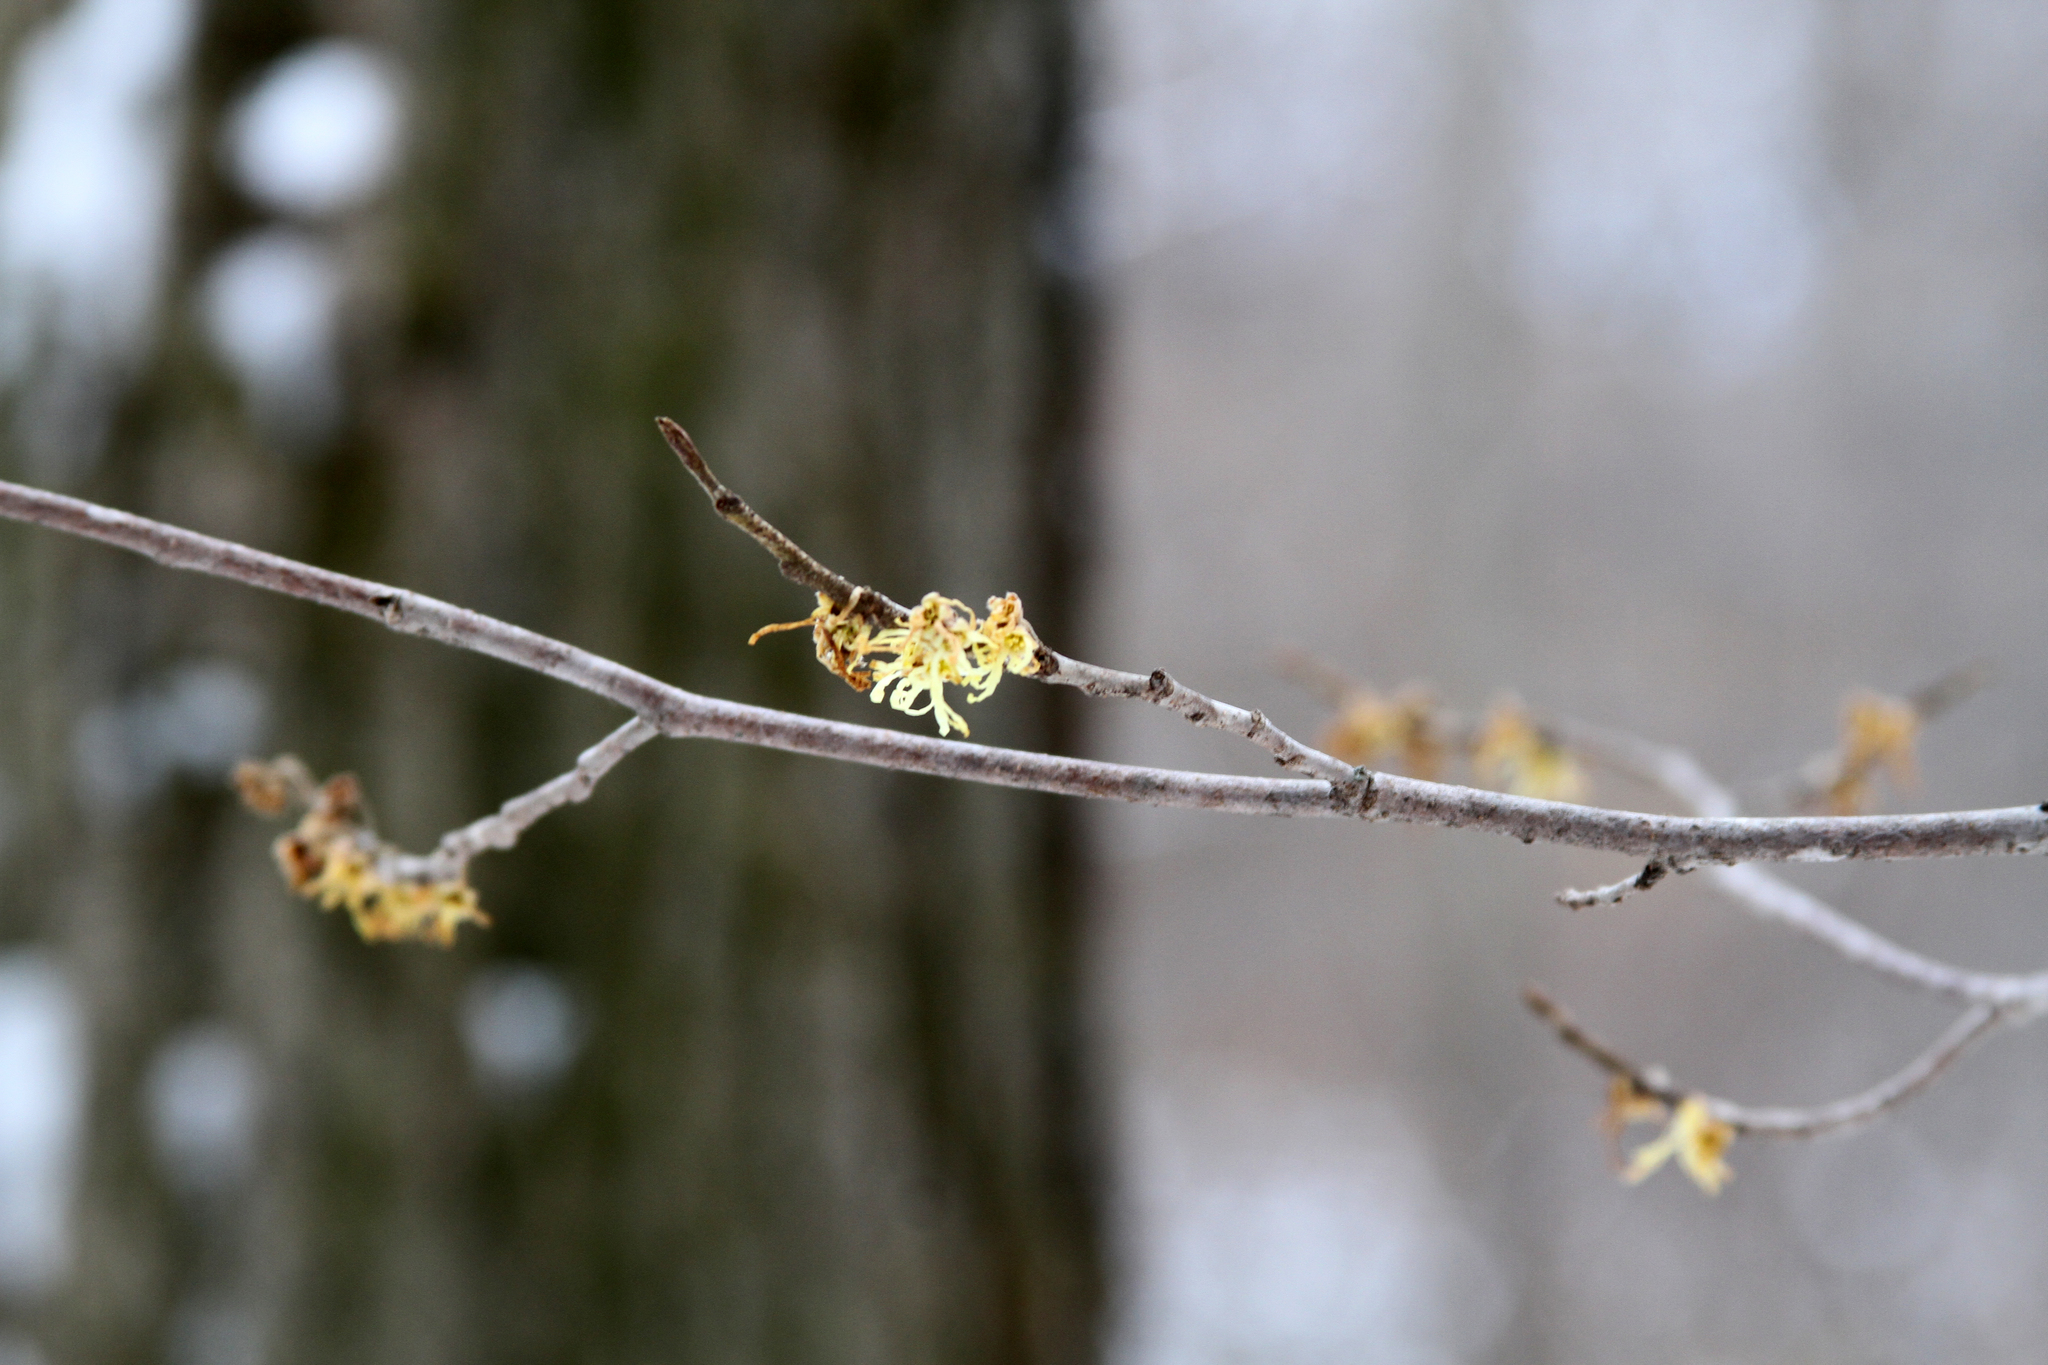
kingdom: Plantae
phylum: Tracheophyta
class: Magnoliopsida
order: Saxifragales
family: Hamamelidaceae
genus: Hamamelis
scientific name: Hamamelis virginiana
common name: Witch-hazel
